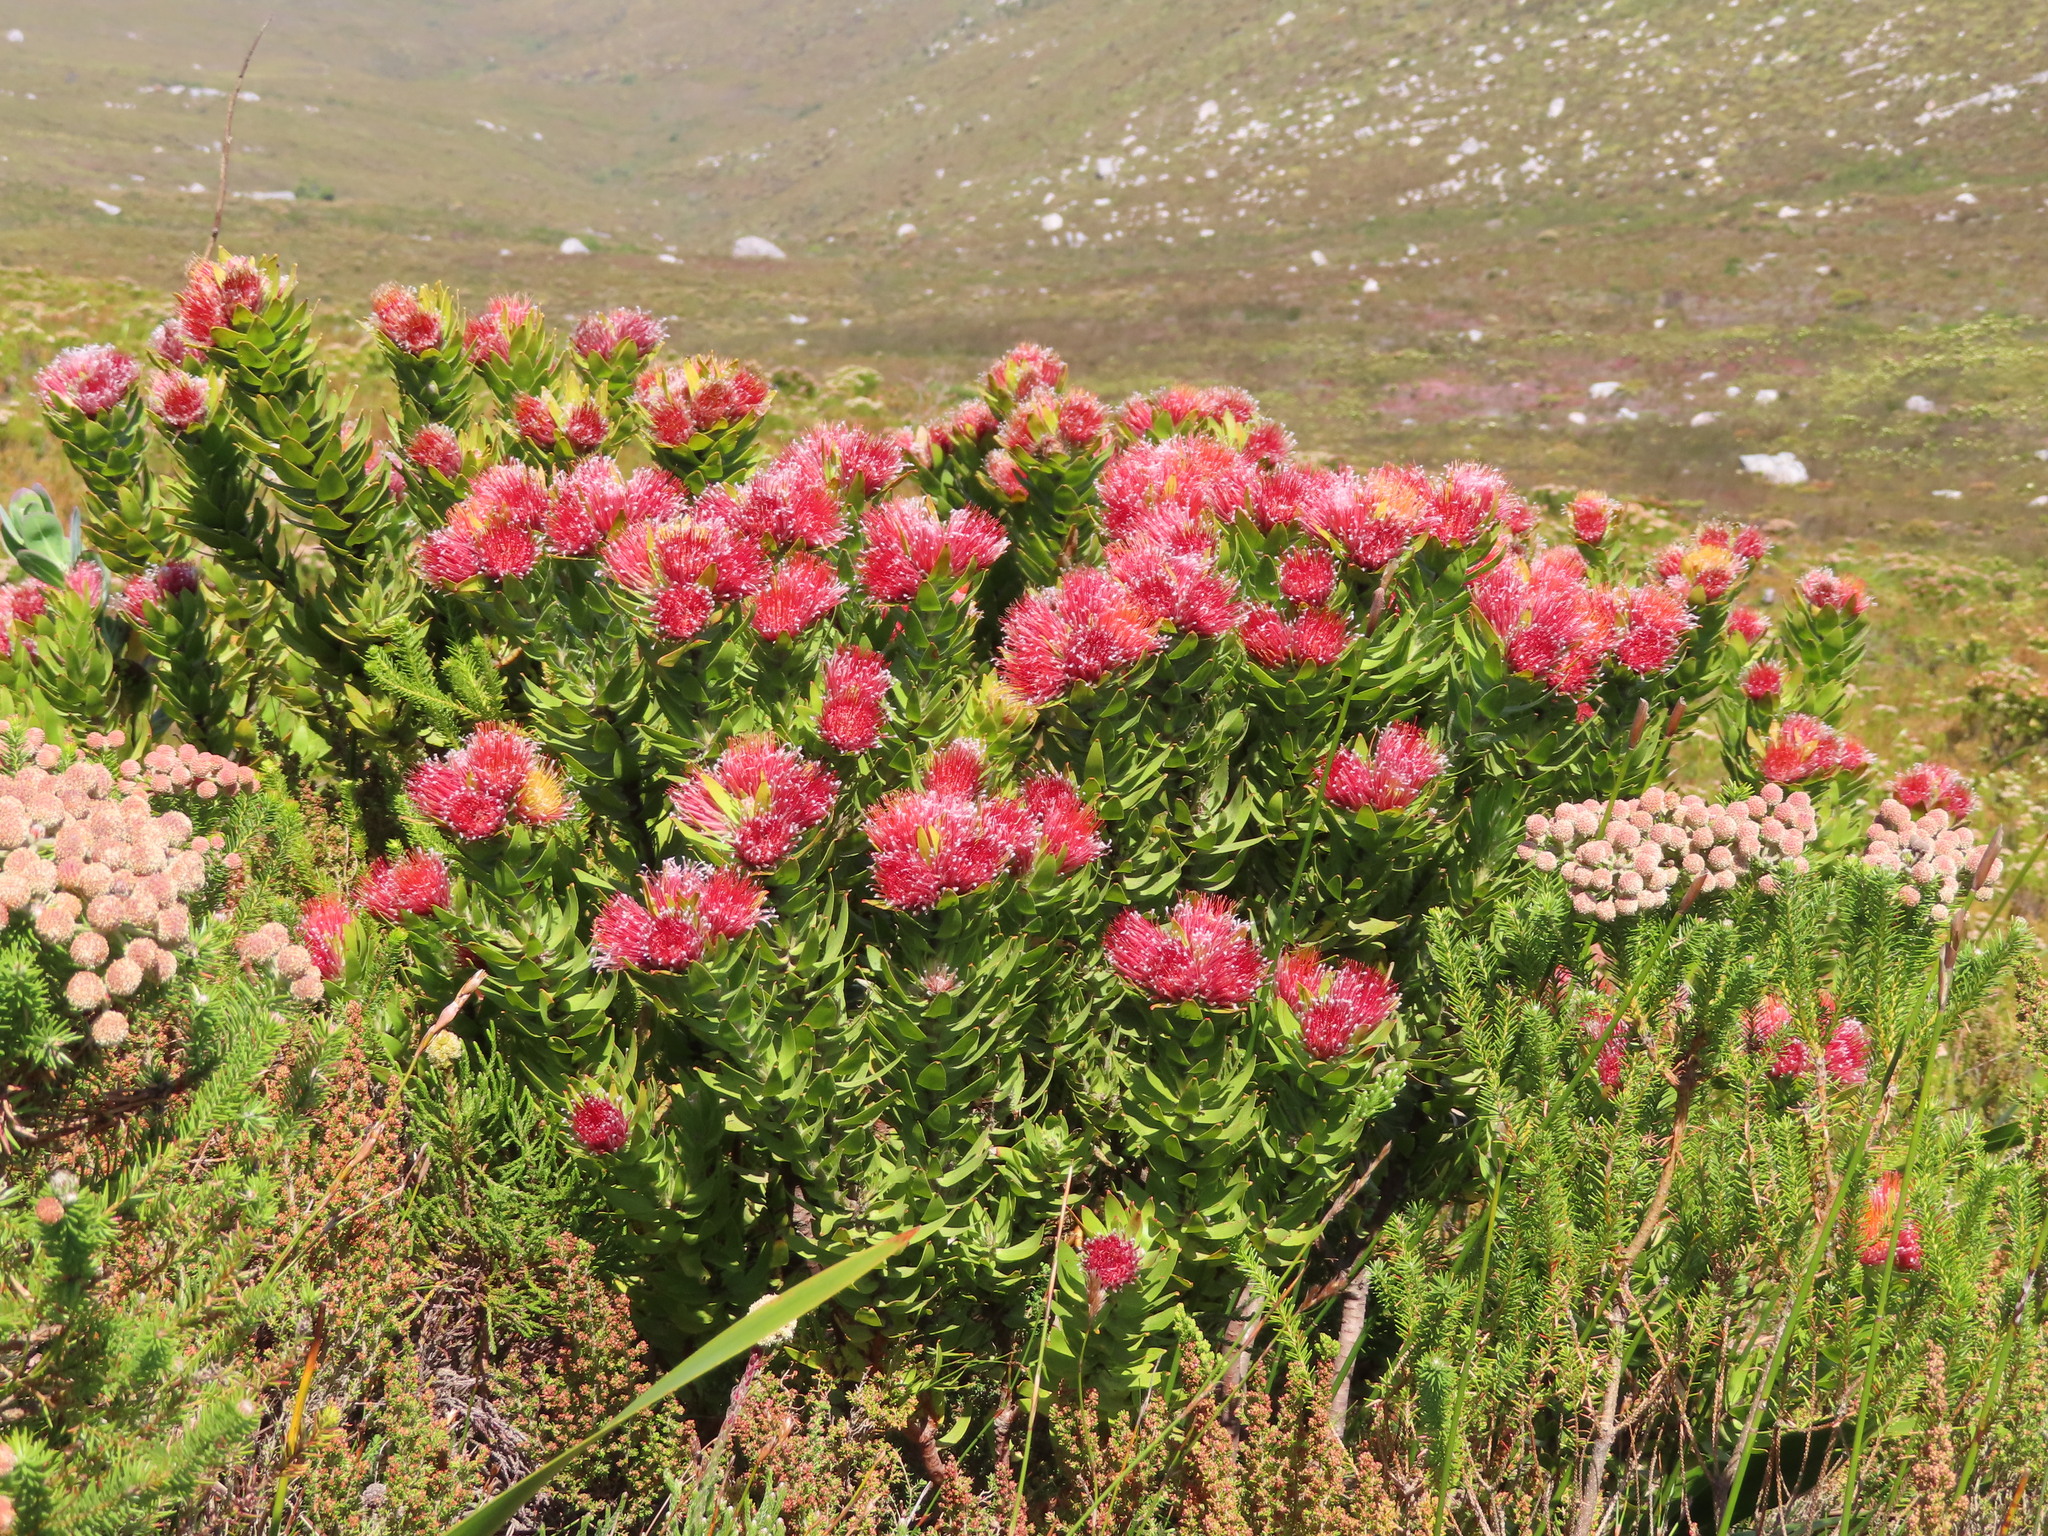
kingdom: Plantae
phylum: Tracheophyta
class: Magnoliopsida
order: Proteales
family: Proteaceae
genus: Leucospermum
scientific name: Leucospermum oleifolium
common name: Matches
